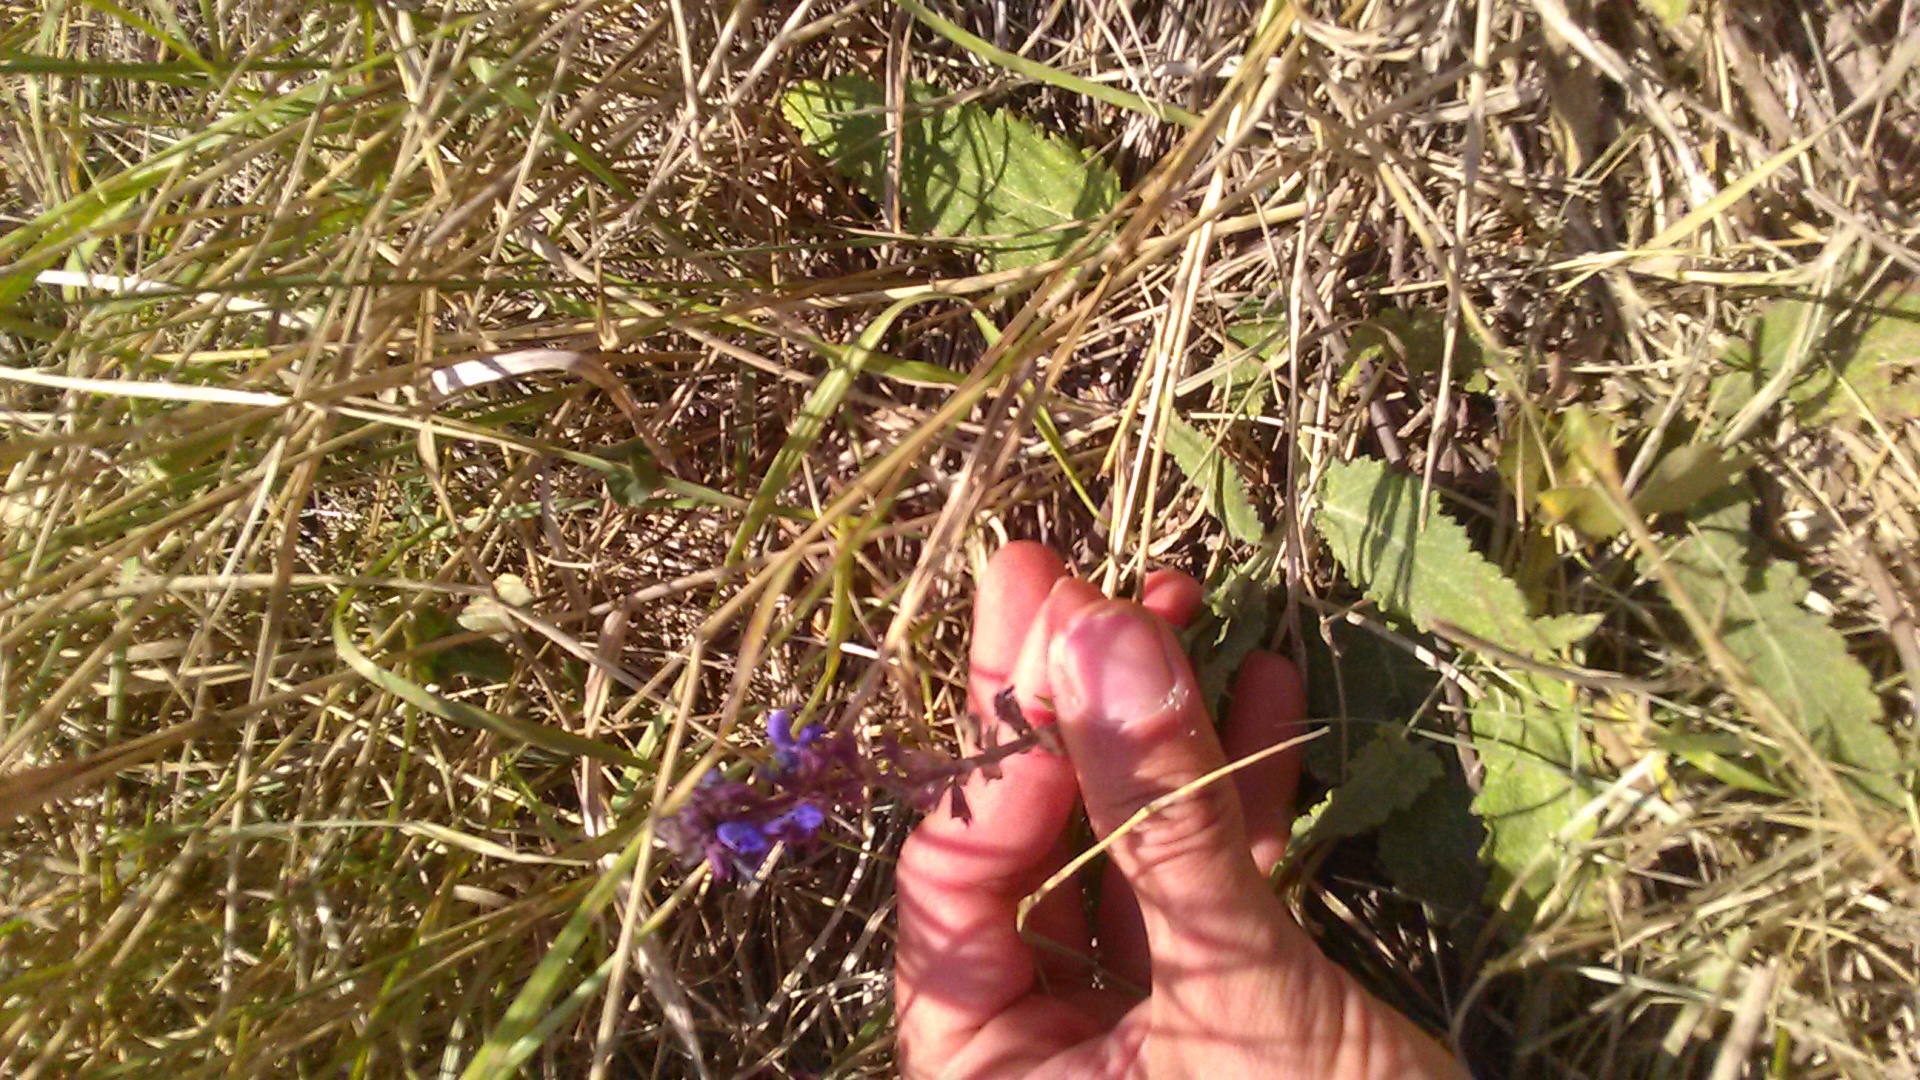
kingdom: Plantae
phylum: Tracheophyta
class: Magnoliopsida
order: Lamiales
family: Lamiaceae
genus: Salvia
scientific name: Salvia nemorosa
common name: Balkan clary
